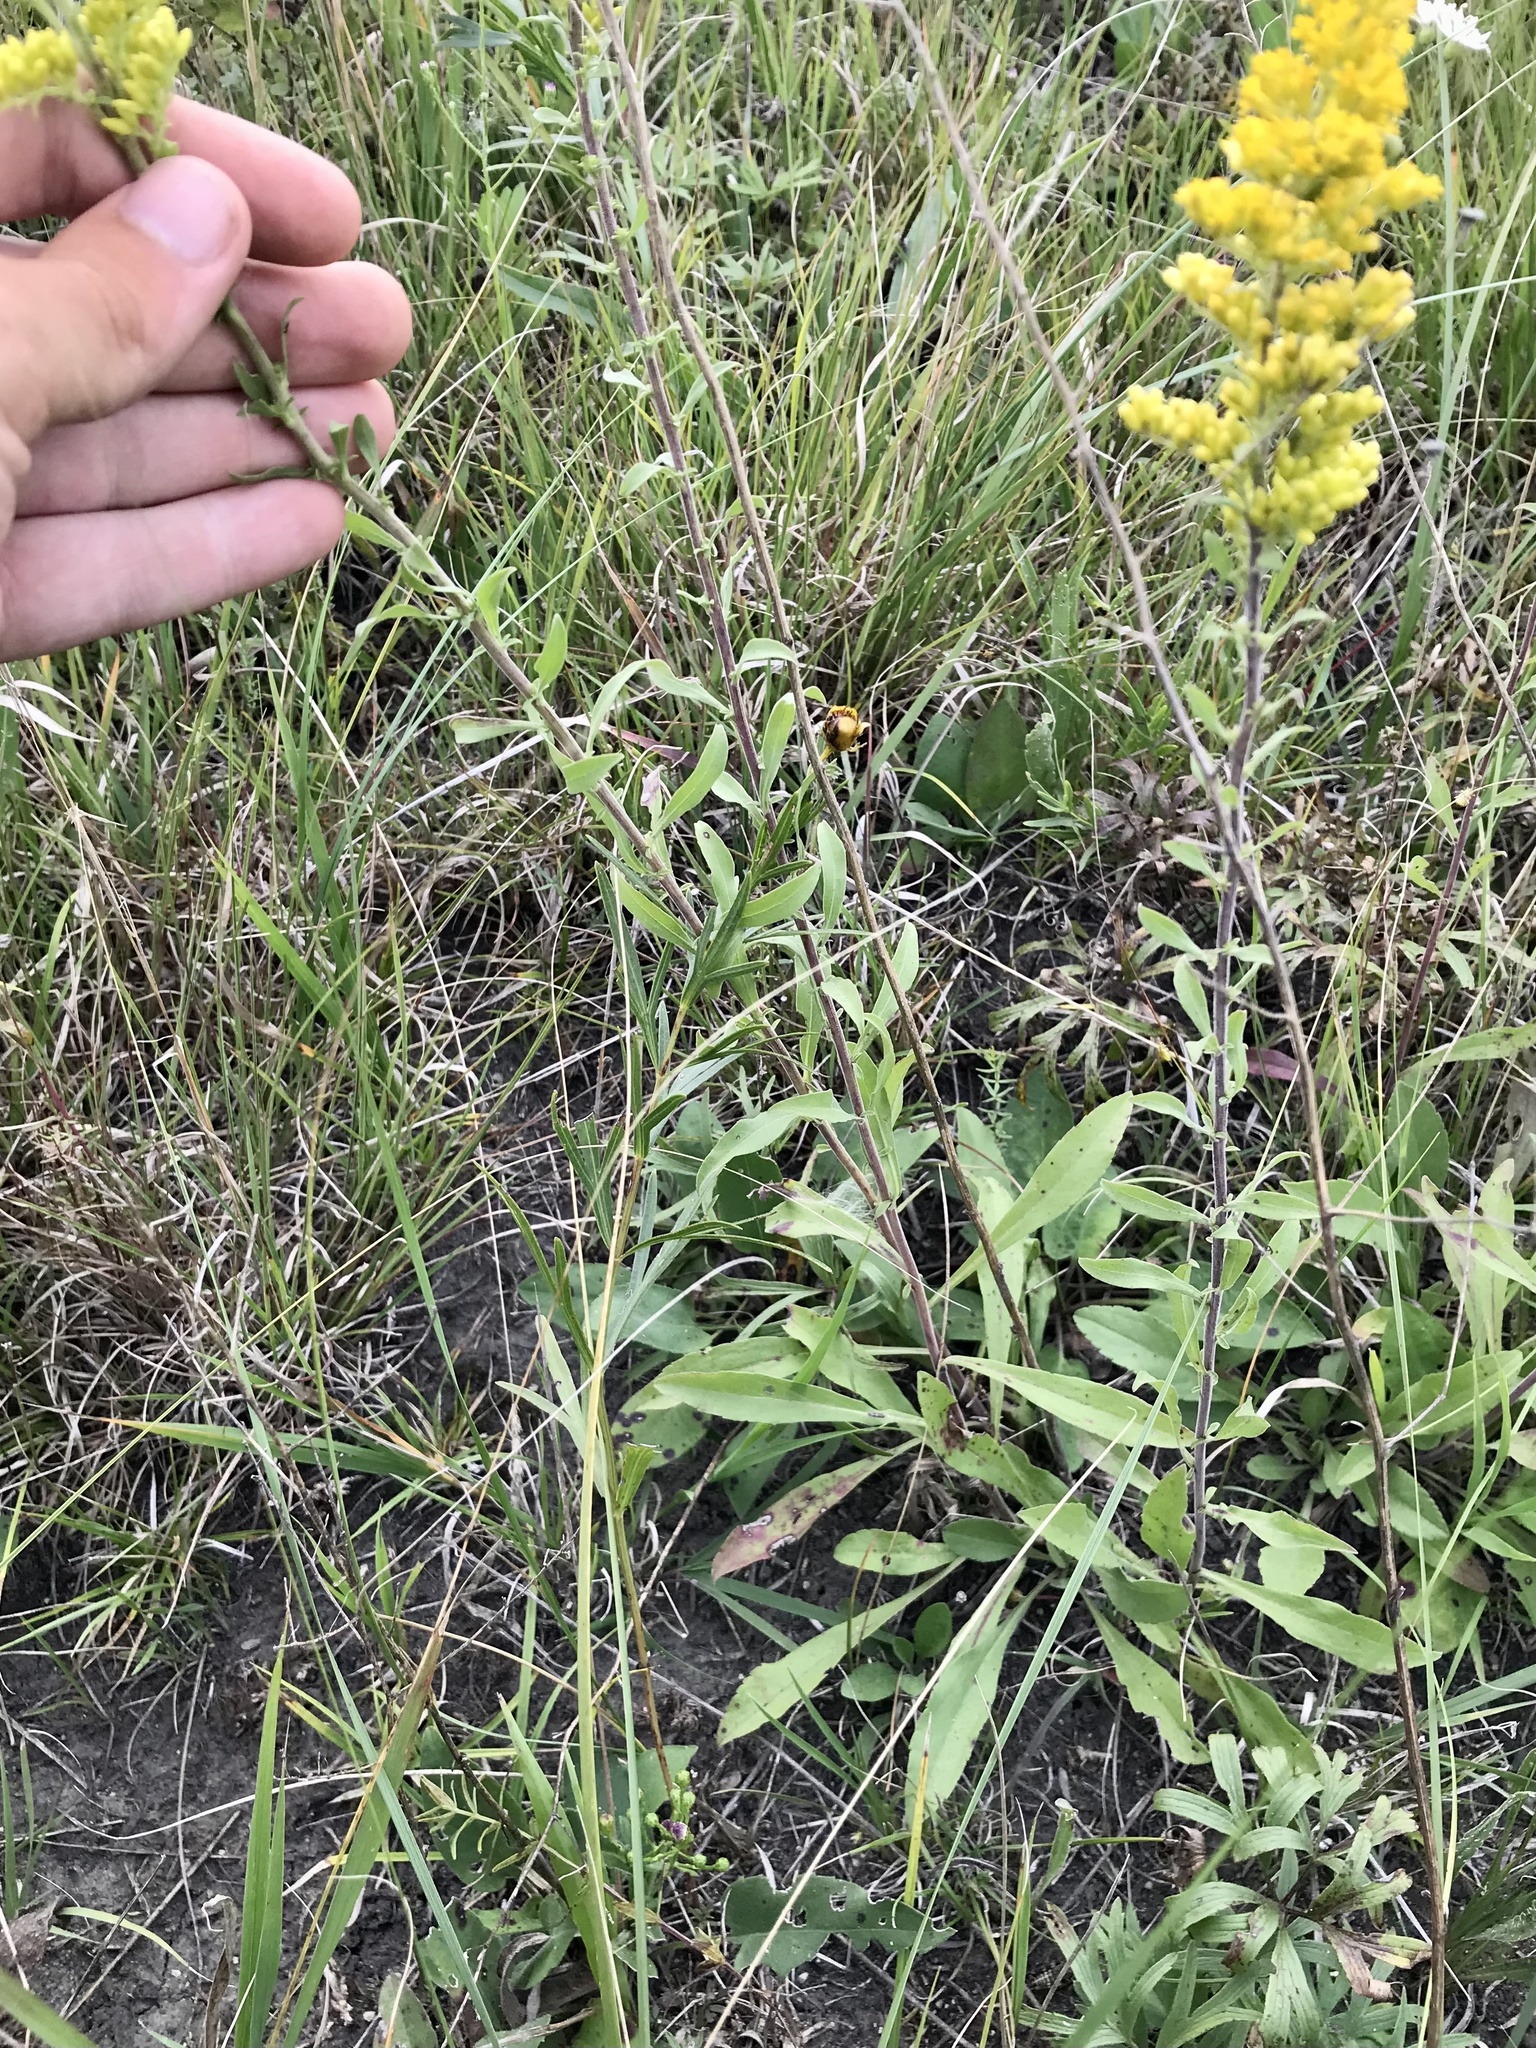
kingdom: Plantae
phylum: Tracheophyta
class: Magnoliopsida
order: Asterales
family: Asteraceae
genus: Solidago
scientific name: Solidago nemoralis
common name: Grey goldenrod
